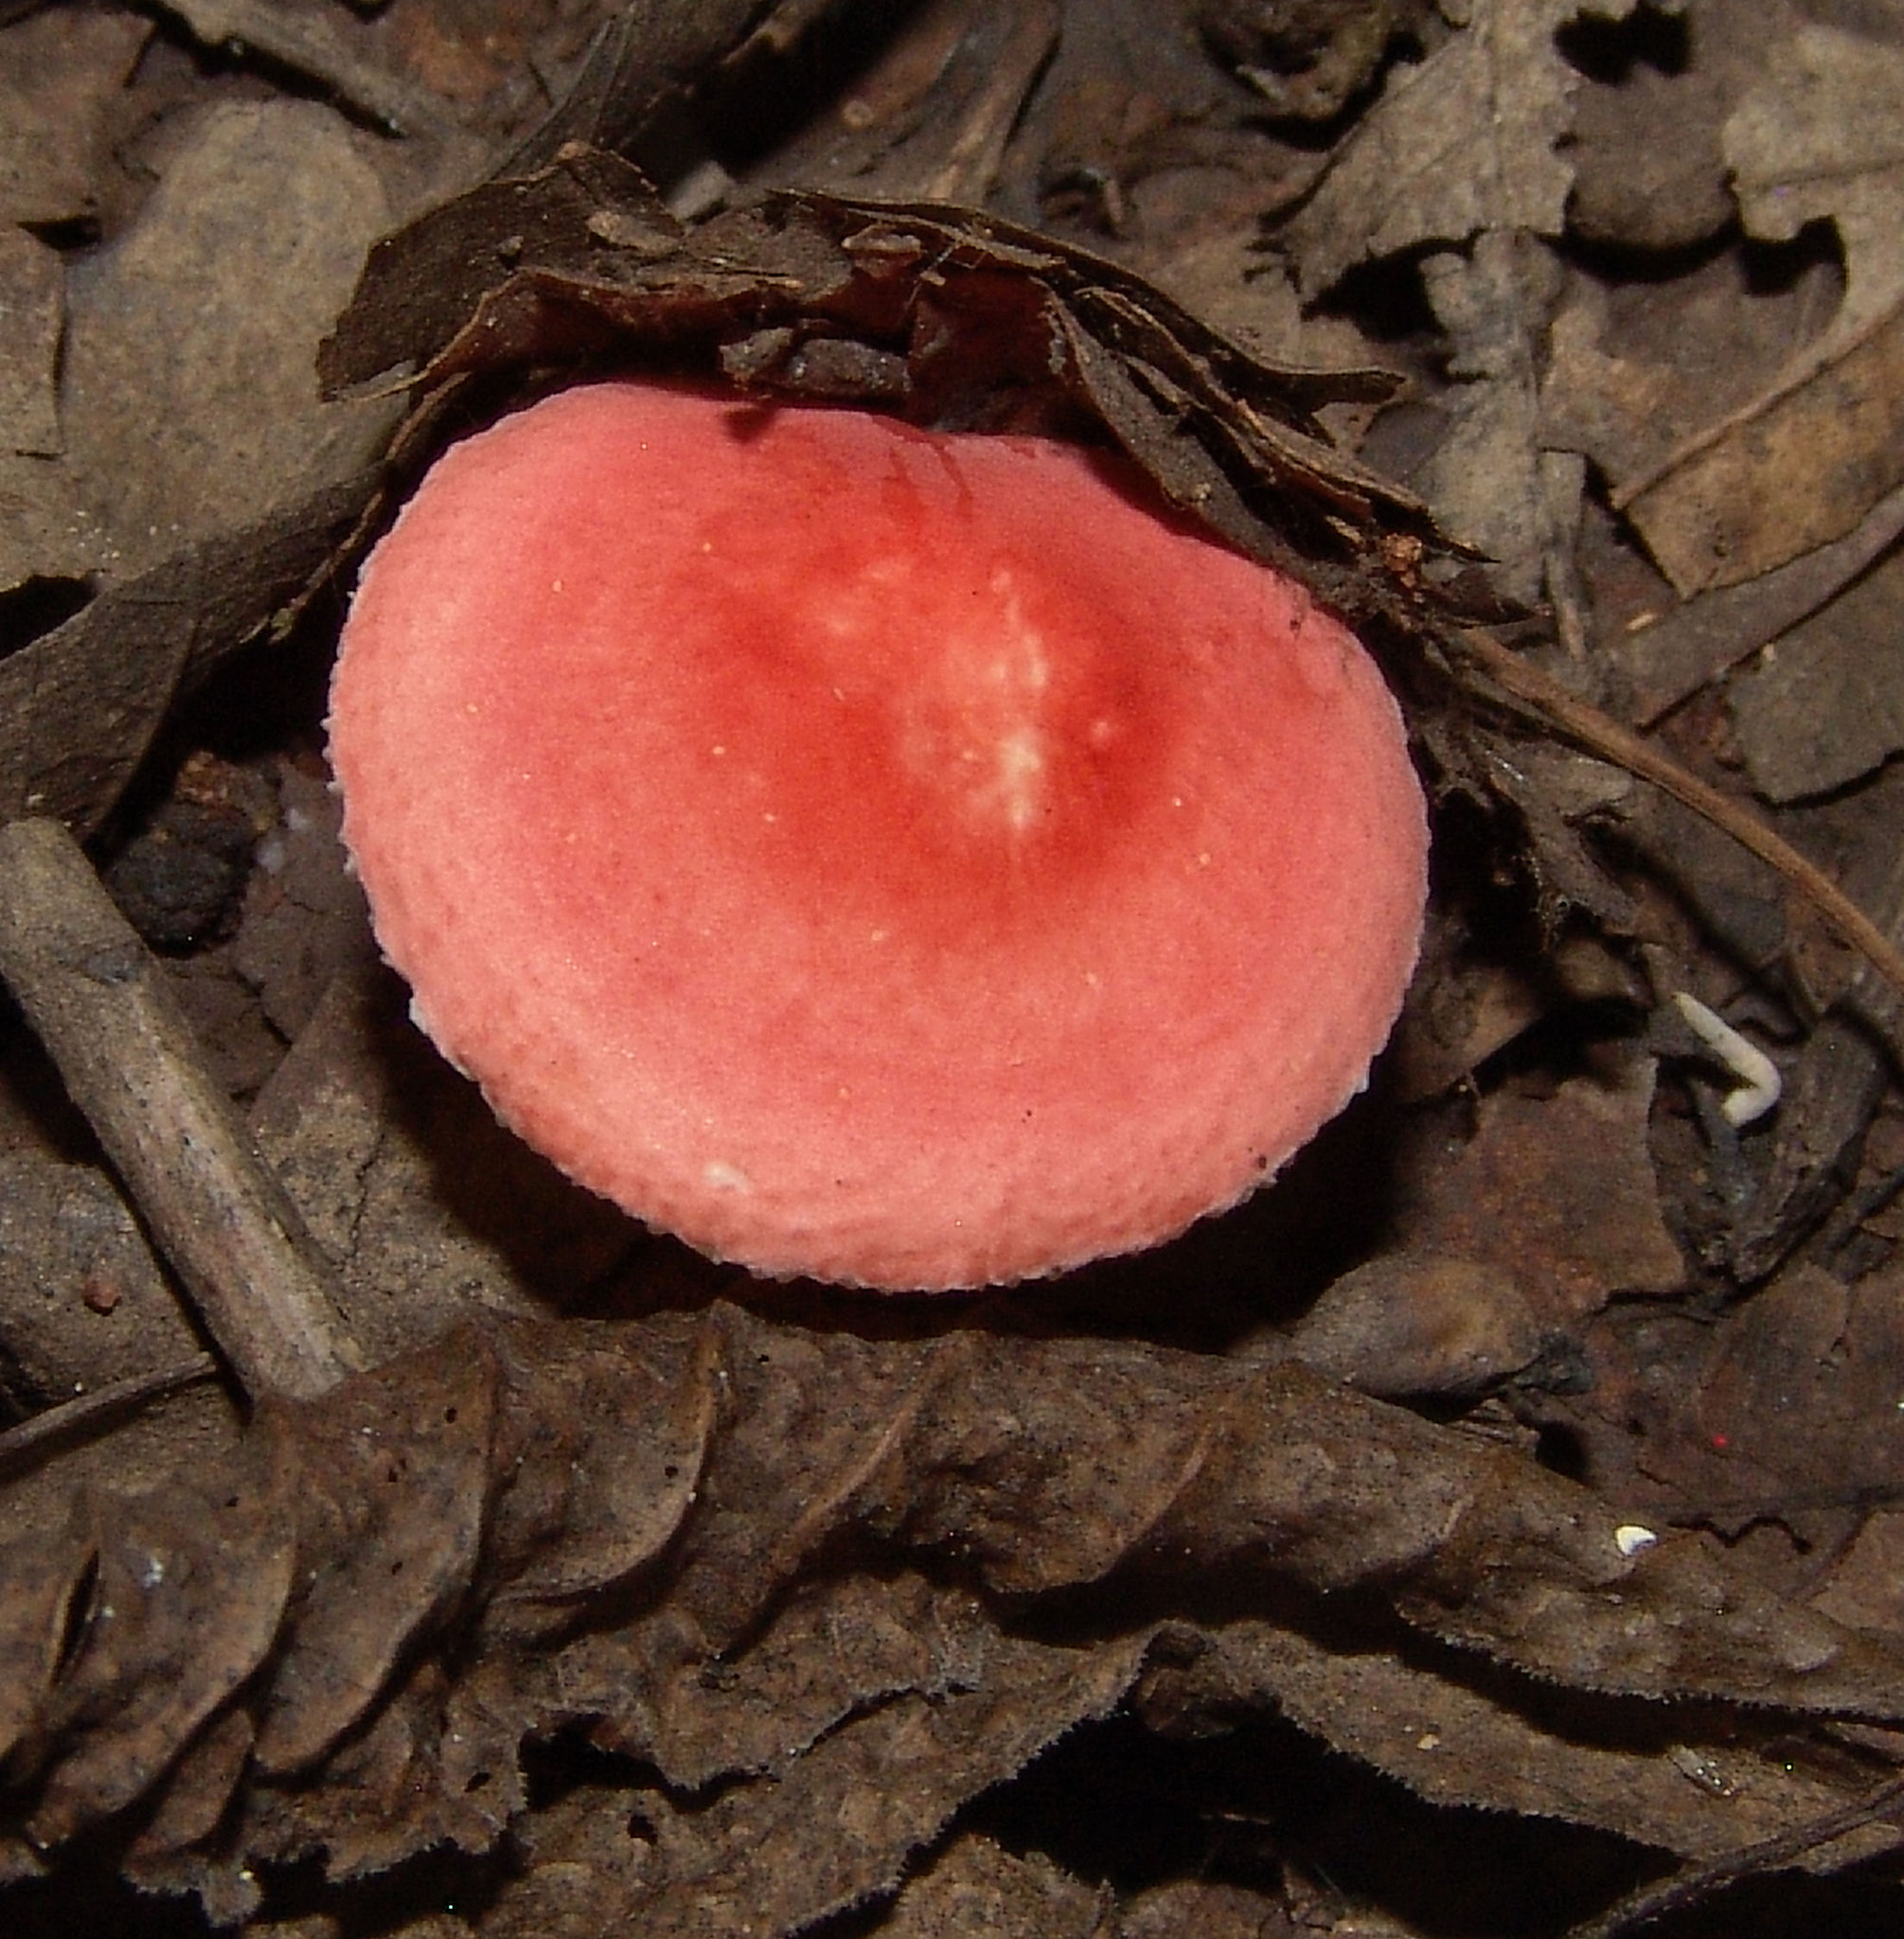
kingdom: Fungi
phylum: Basidiomycota
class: Agaricomycetes
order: Russulales
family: Russulaceae
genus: Russula
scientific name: Russula
